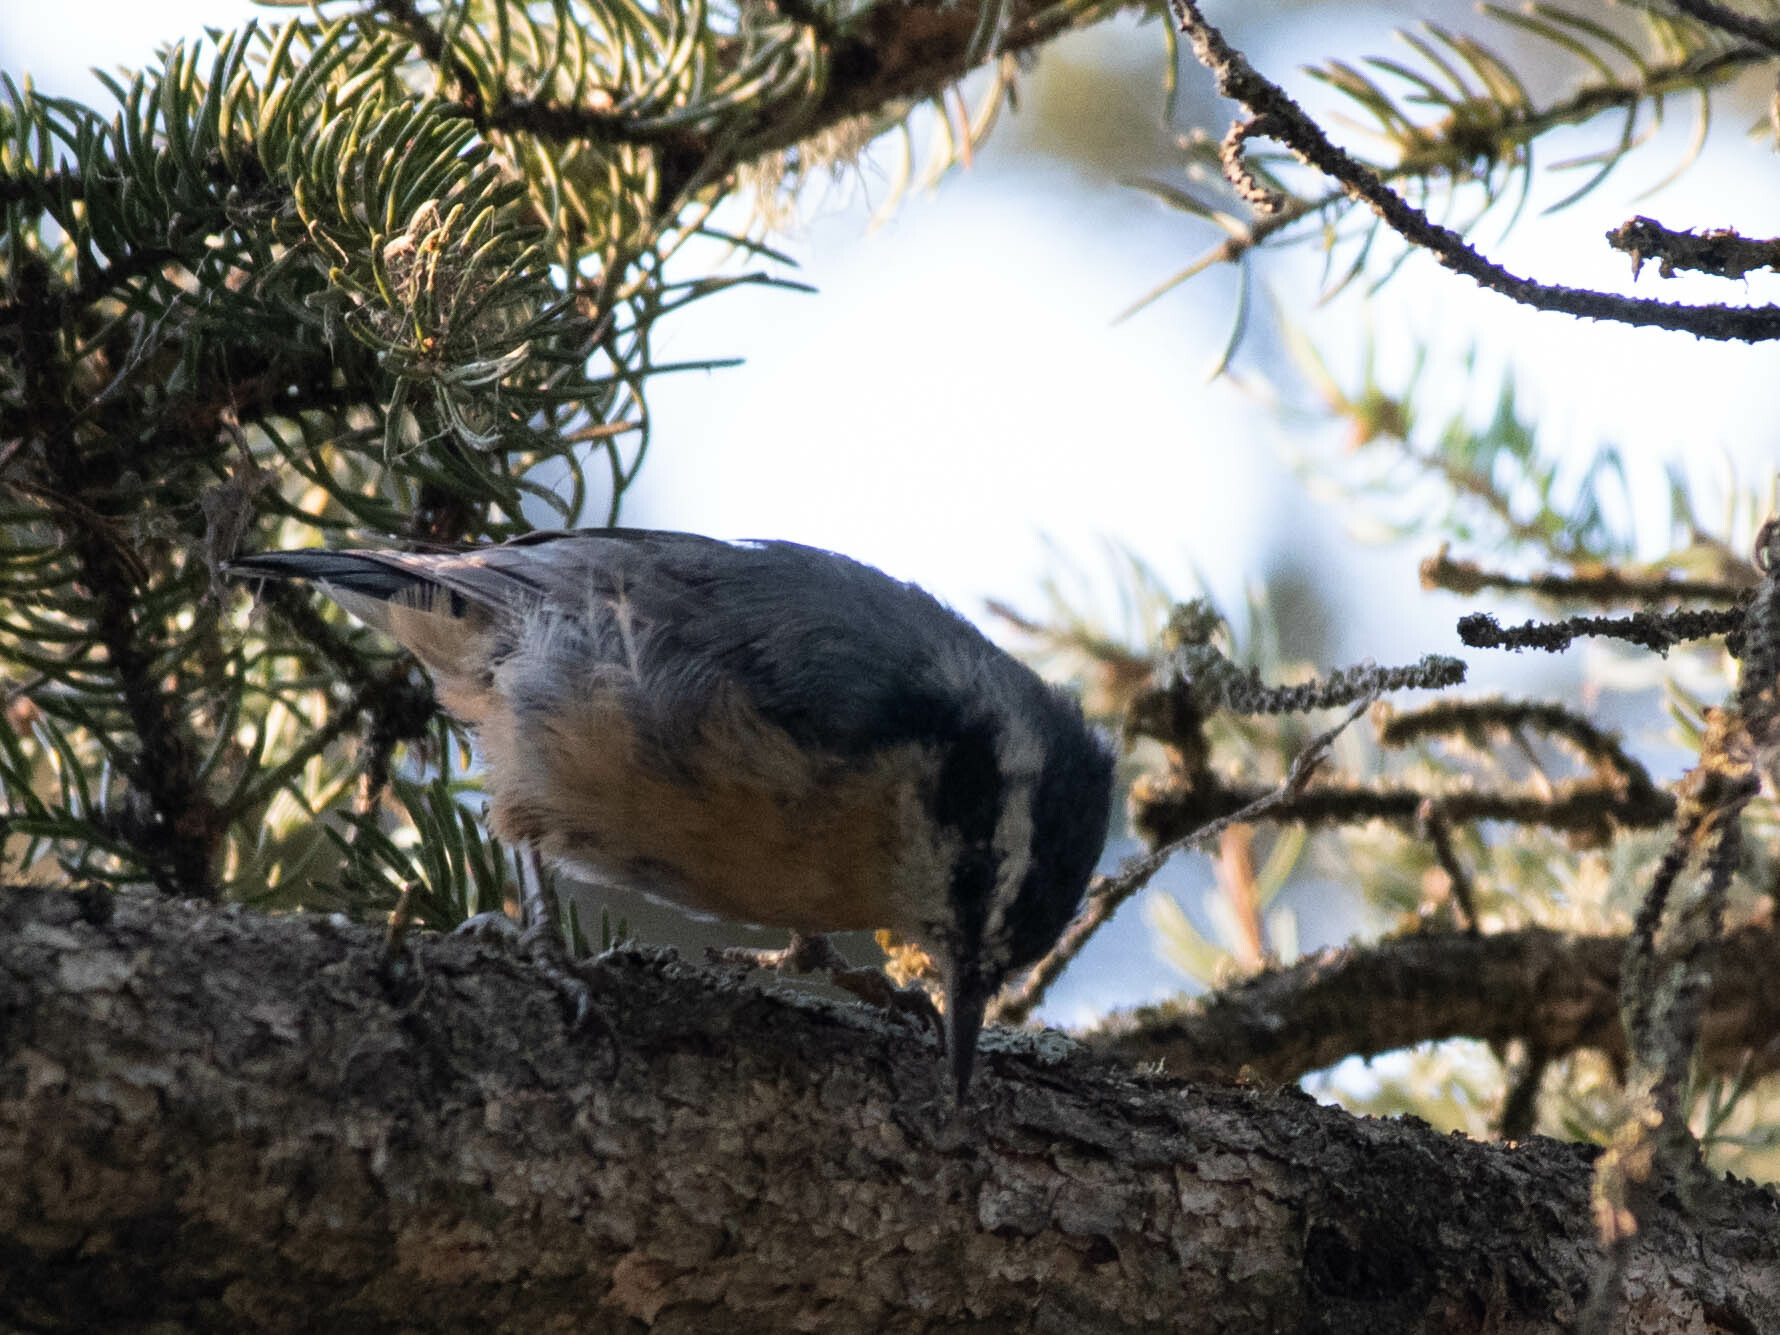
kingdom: Animalia
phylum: Chordata
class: Aves
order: Passeriformes
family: Sittidae
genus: Sitta
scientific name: Sitta canadensis
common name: Red-breasted nuthatch
